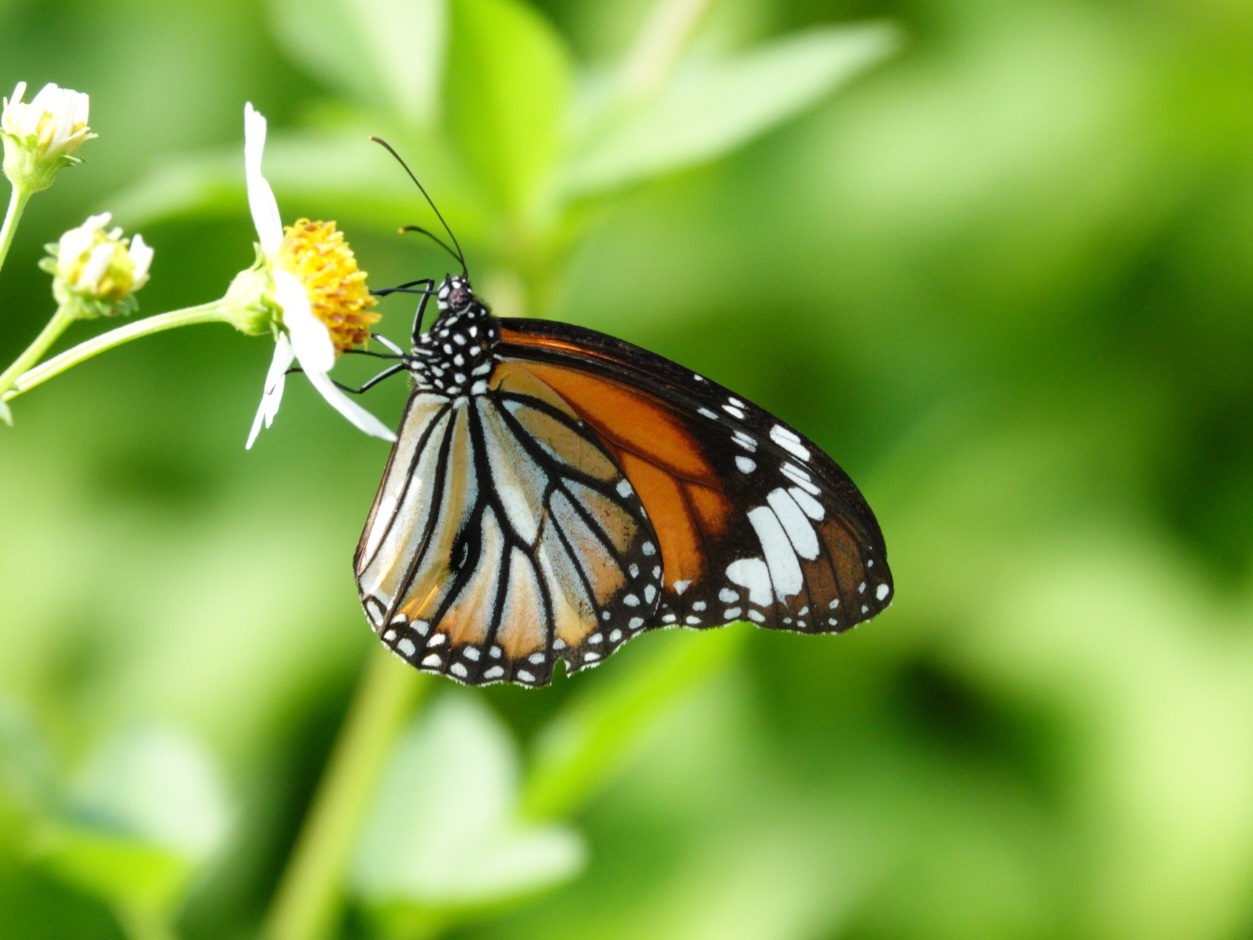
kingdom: Animalia
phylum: Arthropoda
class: Insecta
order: Lepidoptera
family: Nymphalidae
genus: Danaus
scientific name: Danaus genutia
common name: Common tiger butterfly
